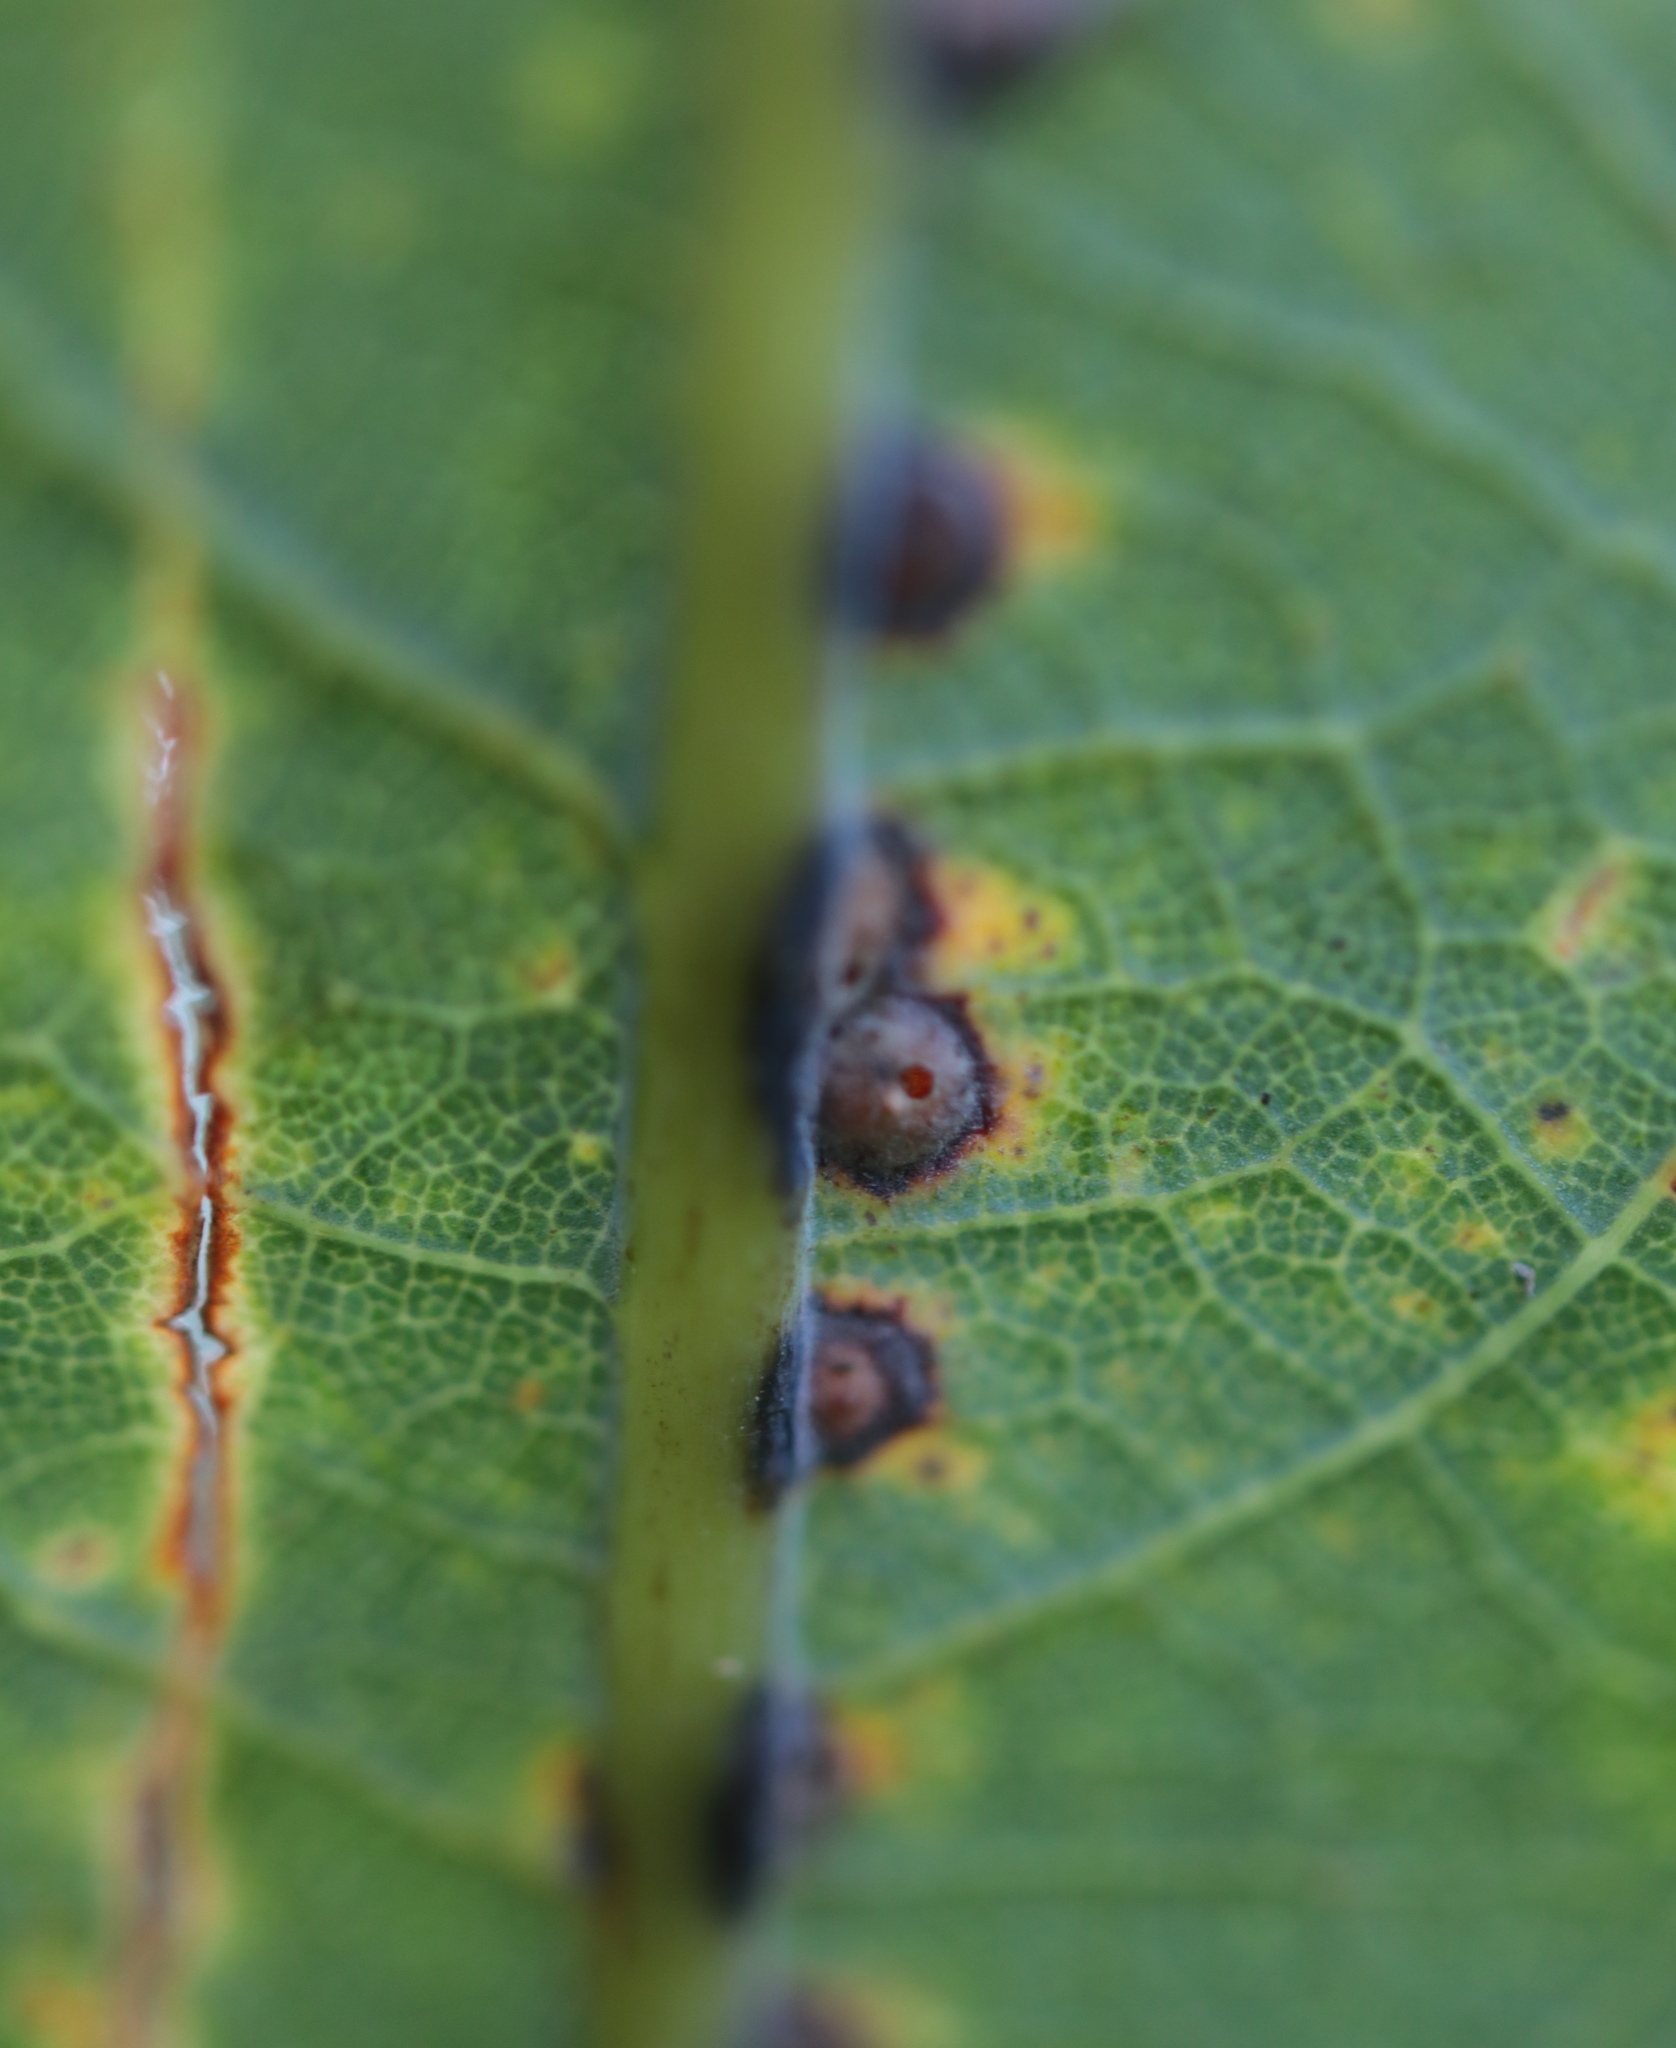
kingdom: Animalia
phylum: Arthropoda
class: Insecta
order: Hymenoptera
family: Cynipidae
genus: Neuroterus
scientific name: Neuroterus niger
